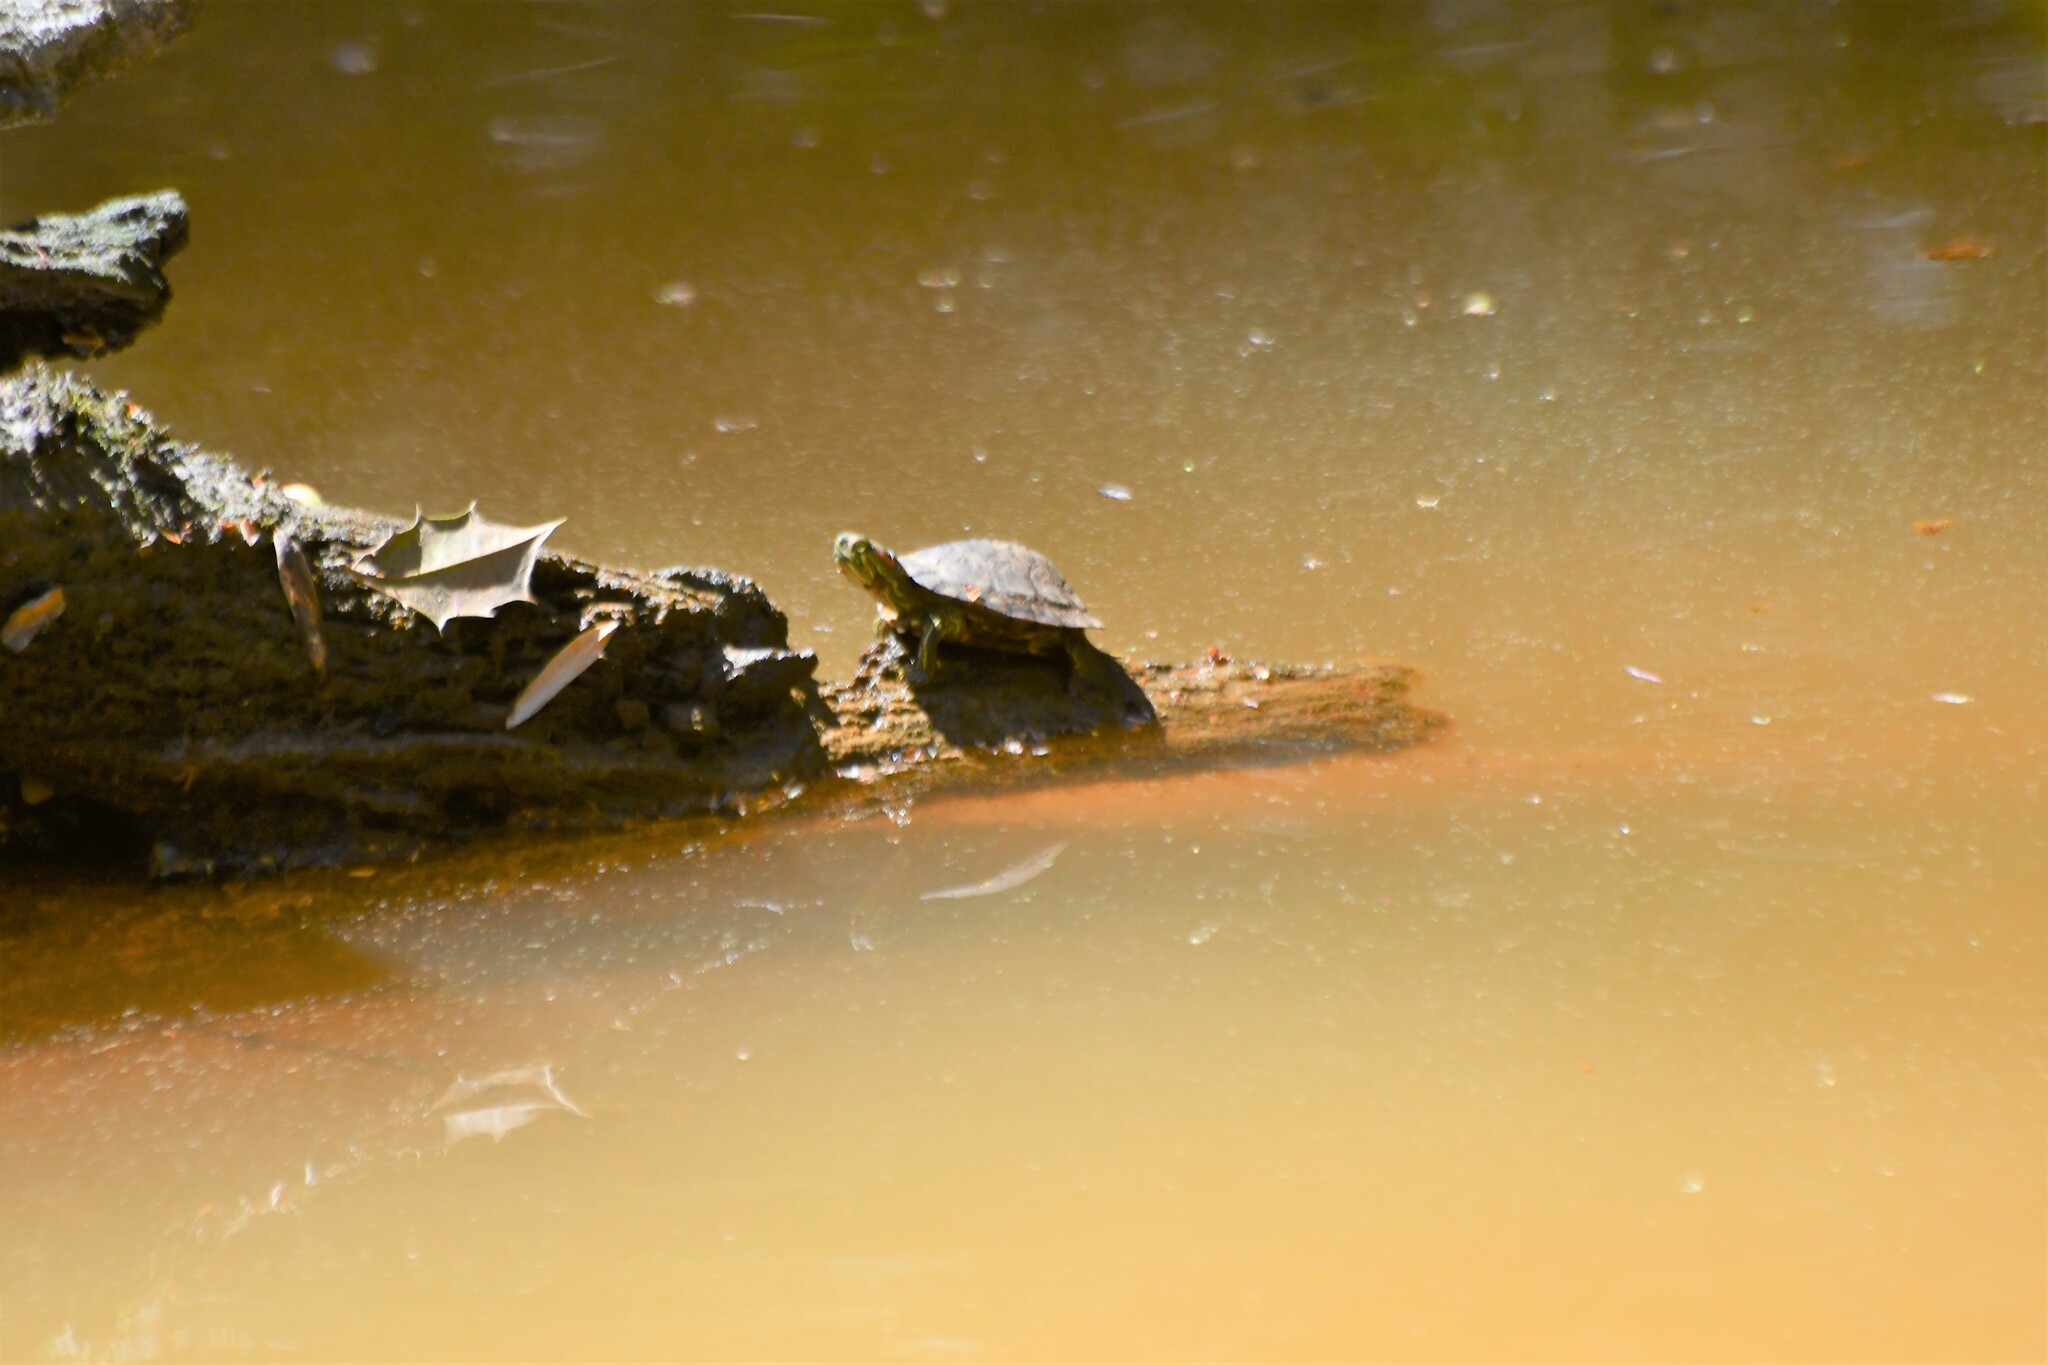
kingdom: Animalia
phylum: Chordata
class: Testudines
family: Emydidae
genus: Trachemys
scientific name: Trachemys scripta
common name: Slider
